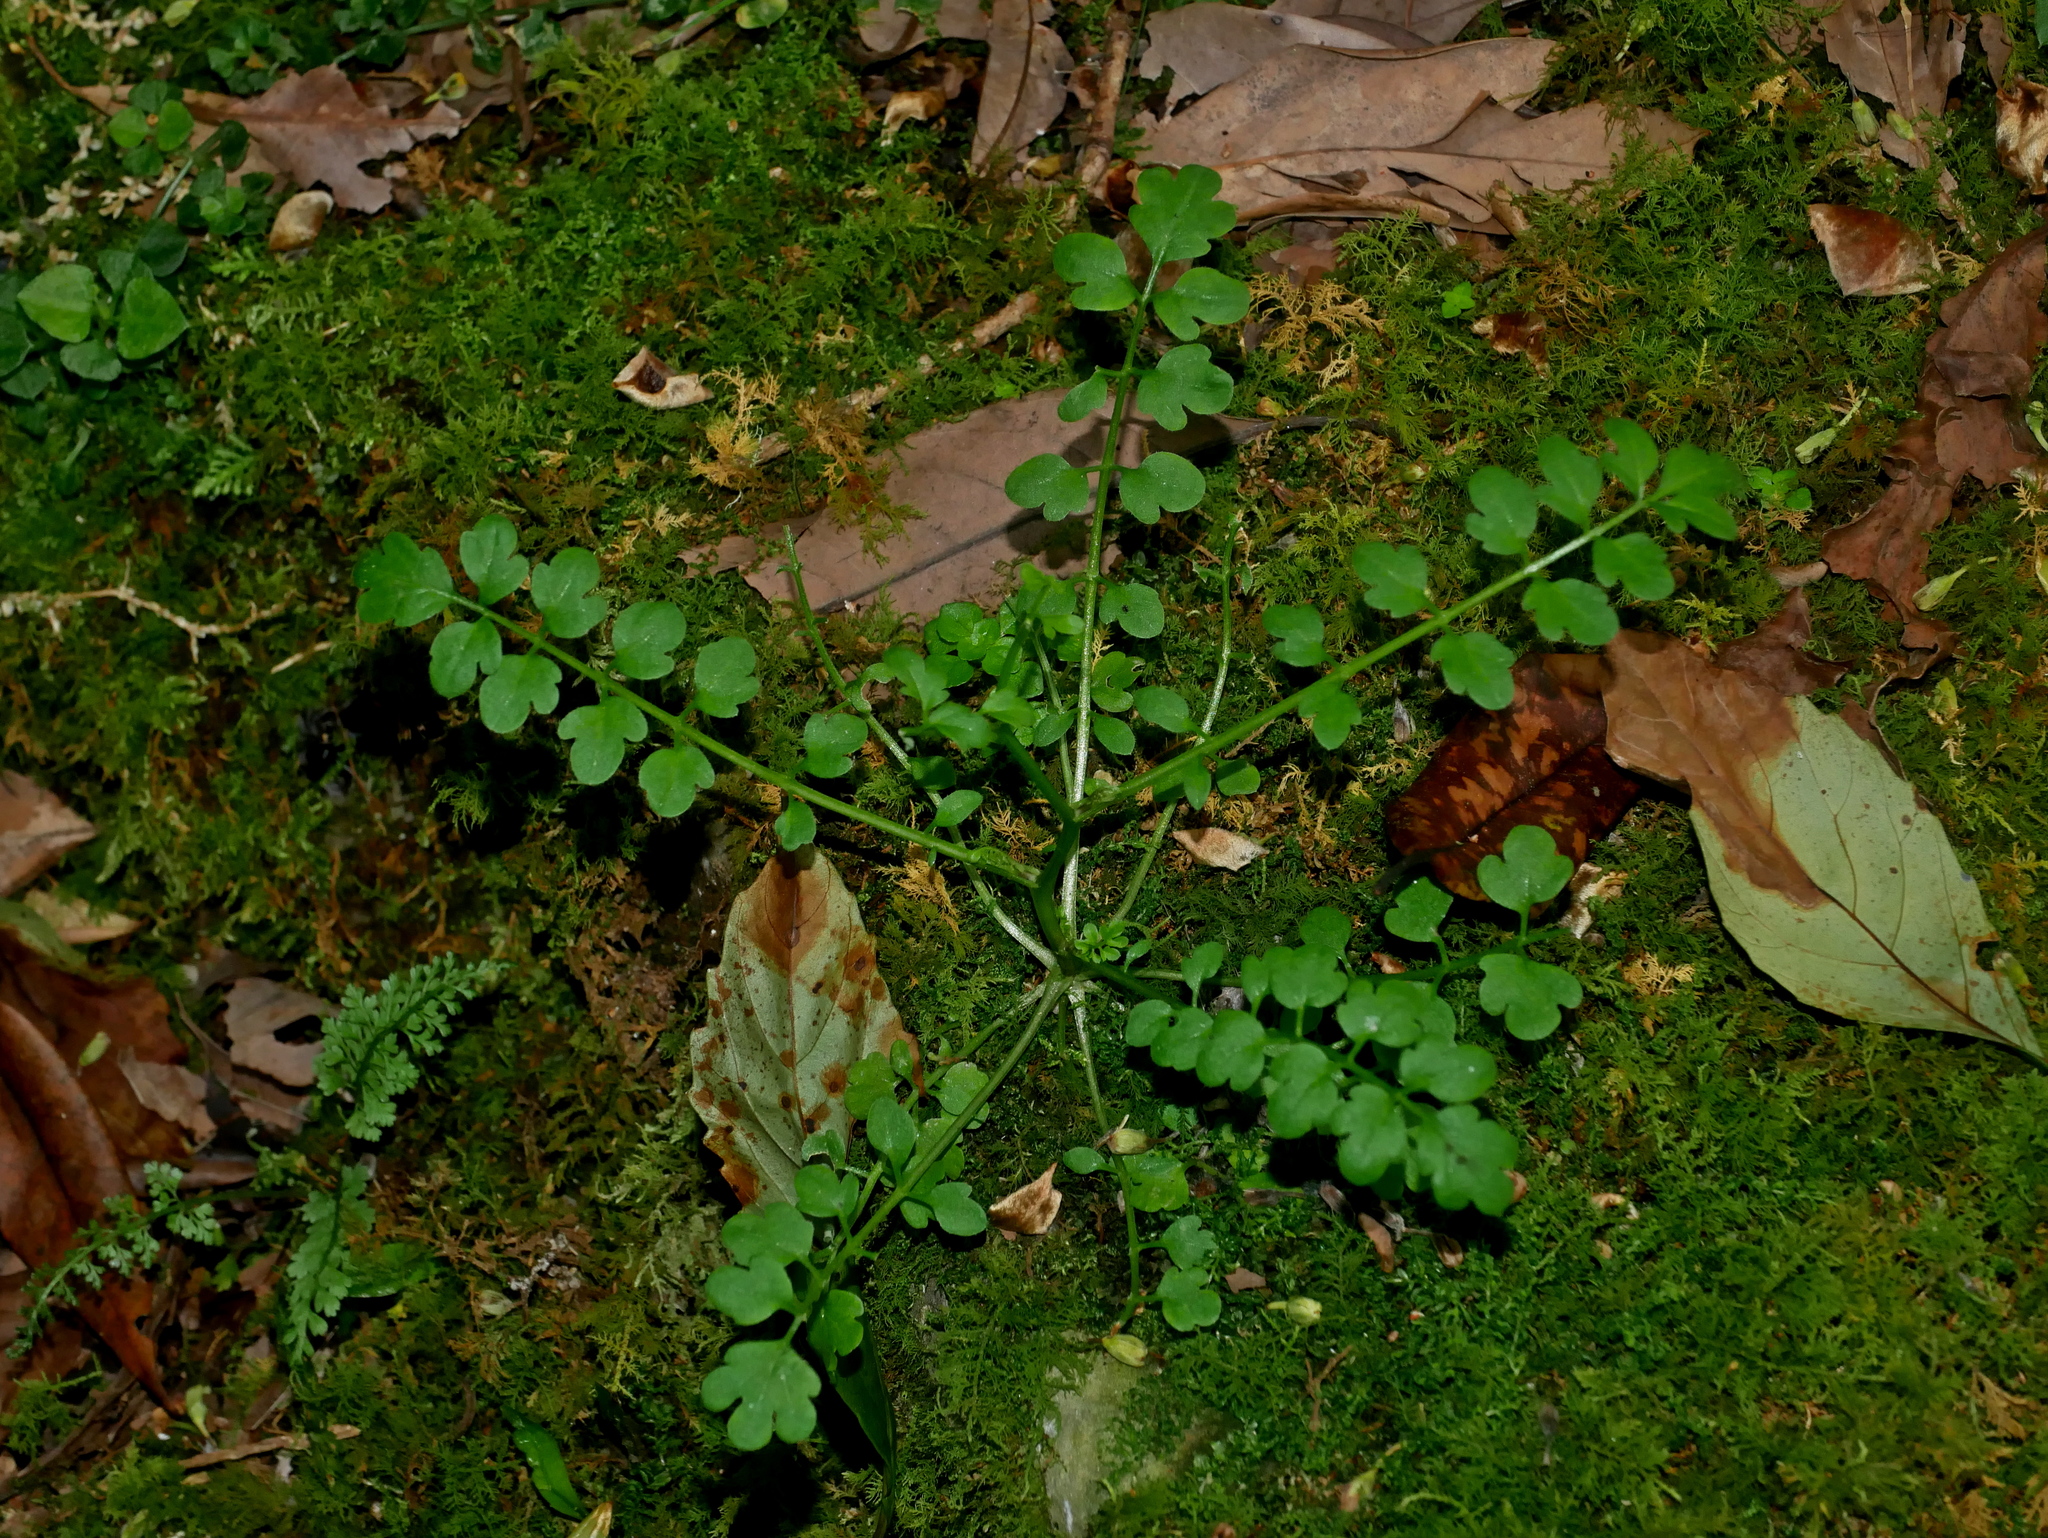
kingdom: Plantae
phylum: Tracheophyta
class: Magnoliopsida
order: Brassicales
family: Brassicaceae
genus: Cardamine
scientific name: Cardamine flexuosa
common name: Woodland bittercress
